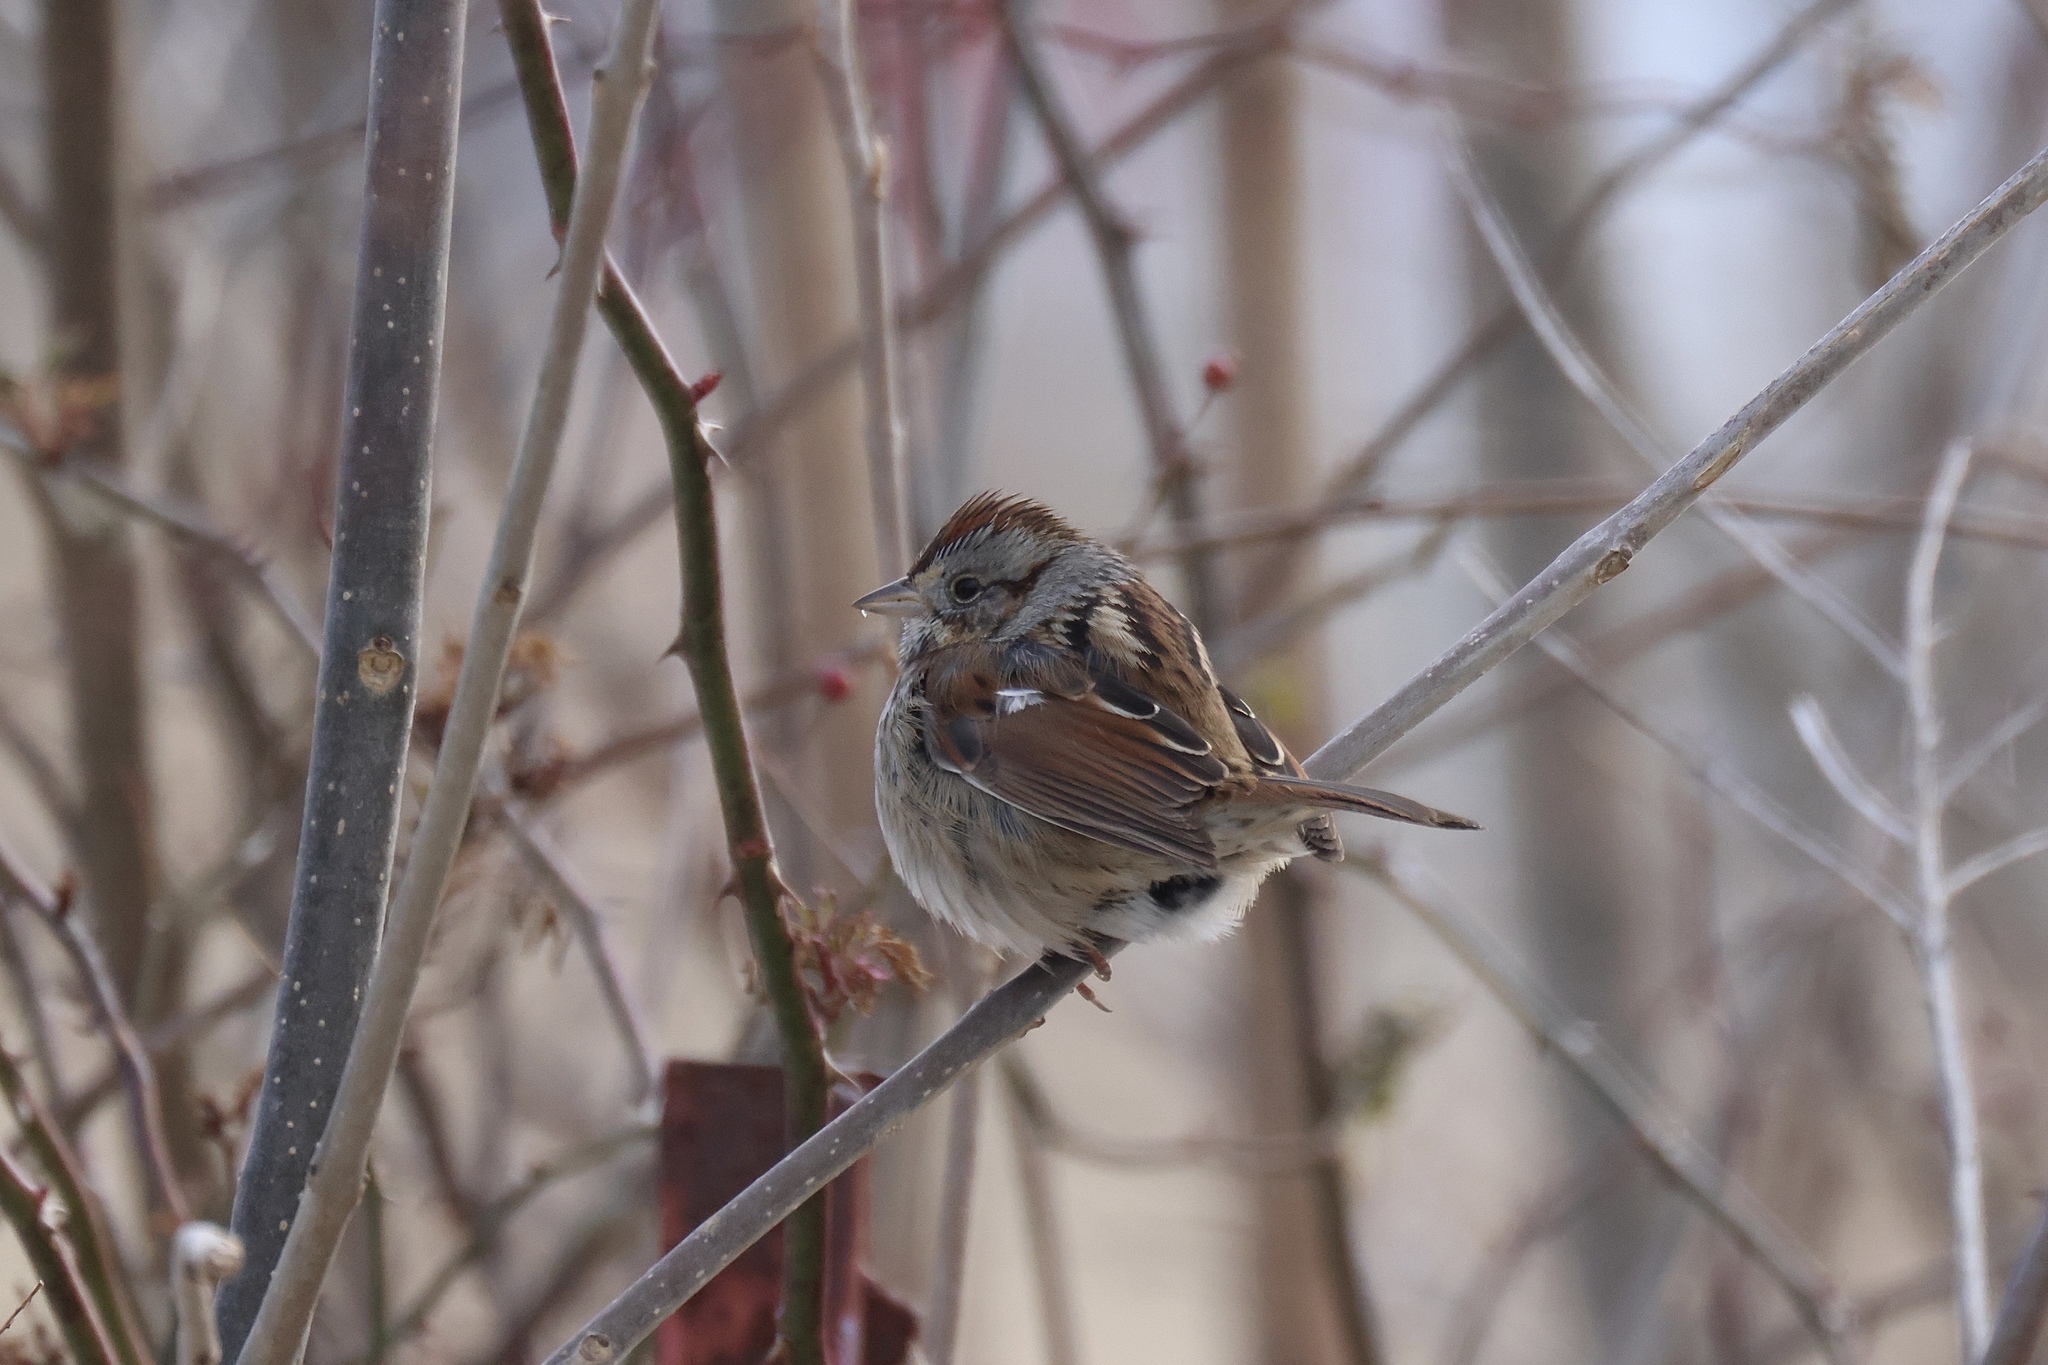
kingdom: Animalia
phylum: Chordata
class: Aves
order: Passeriformes
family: Passerellidae
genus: Melospiza
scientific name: Melospiza georgiana
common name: Swamp sparrow
